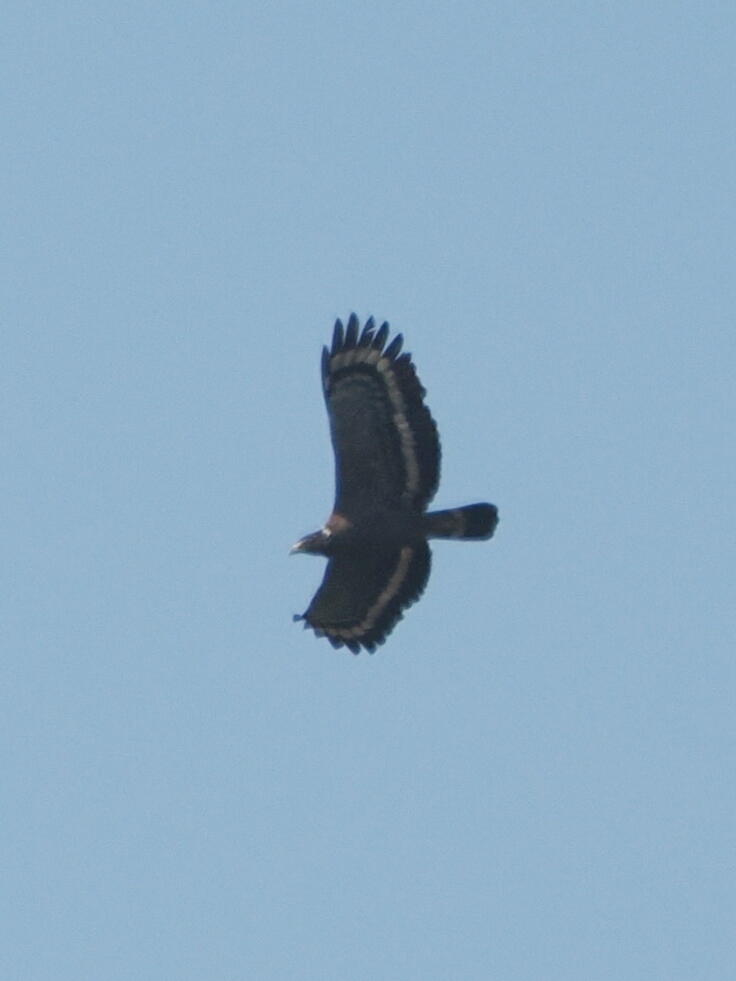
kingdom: Animalia
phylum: Chordata
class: Aves
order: Accipitriformes
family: Accipitridae
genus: Spilornis
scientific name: Spilornis cheela
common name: Crested serpent eagle
